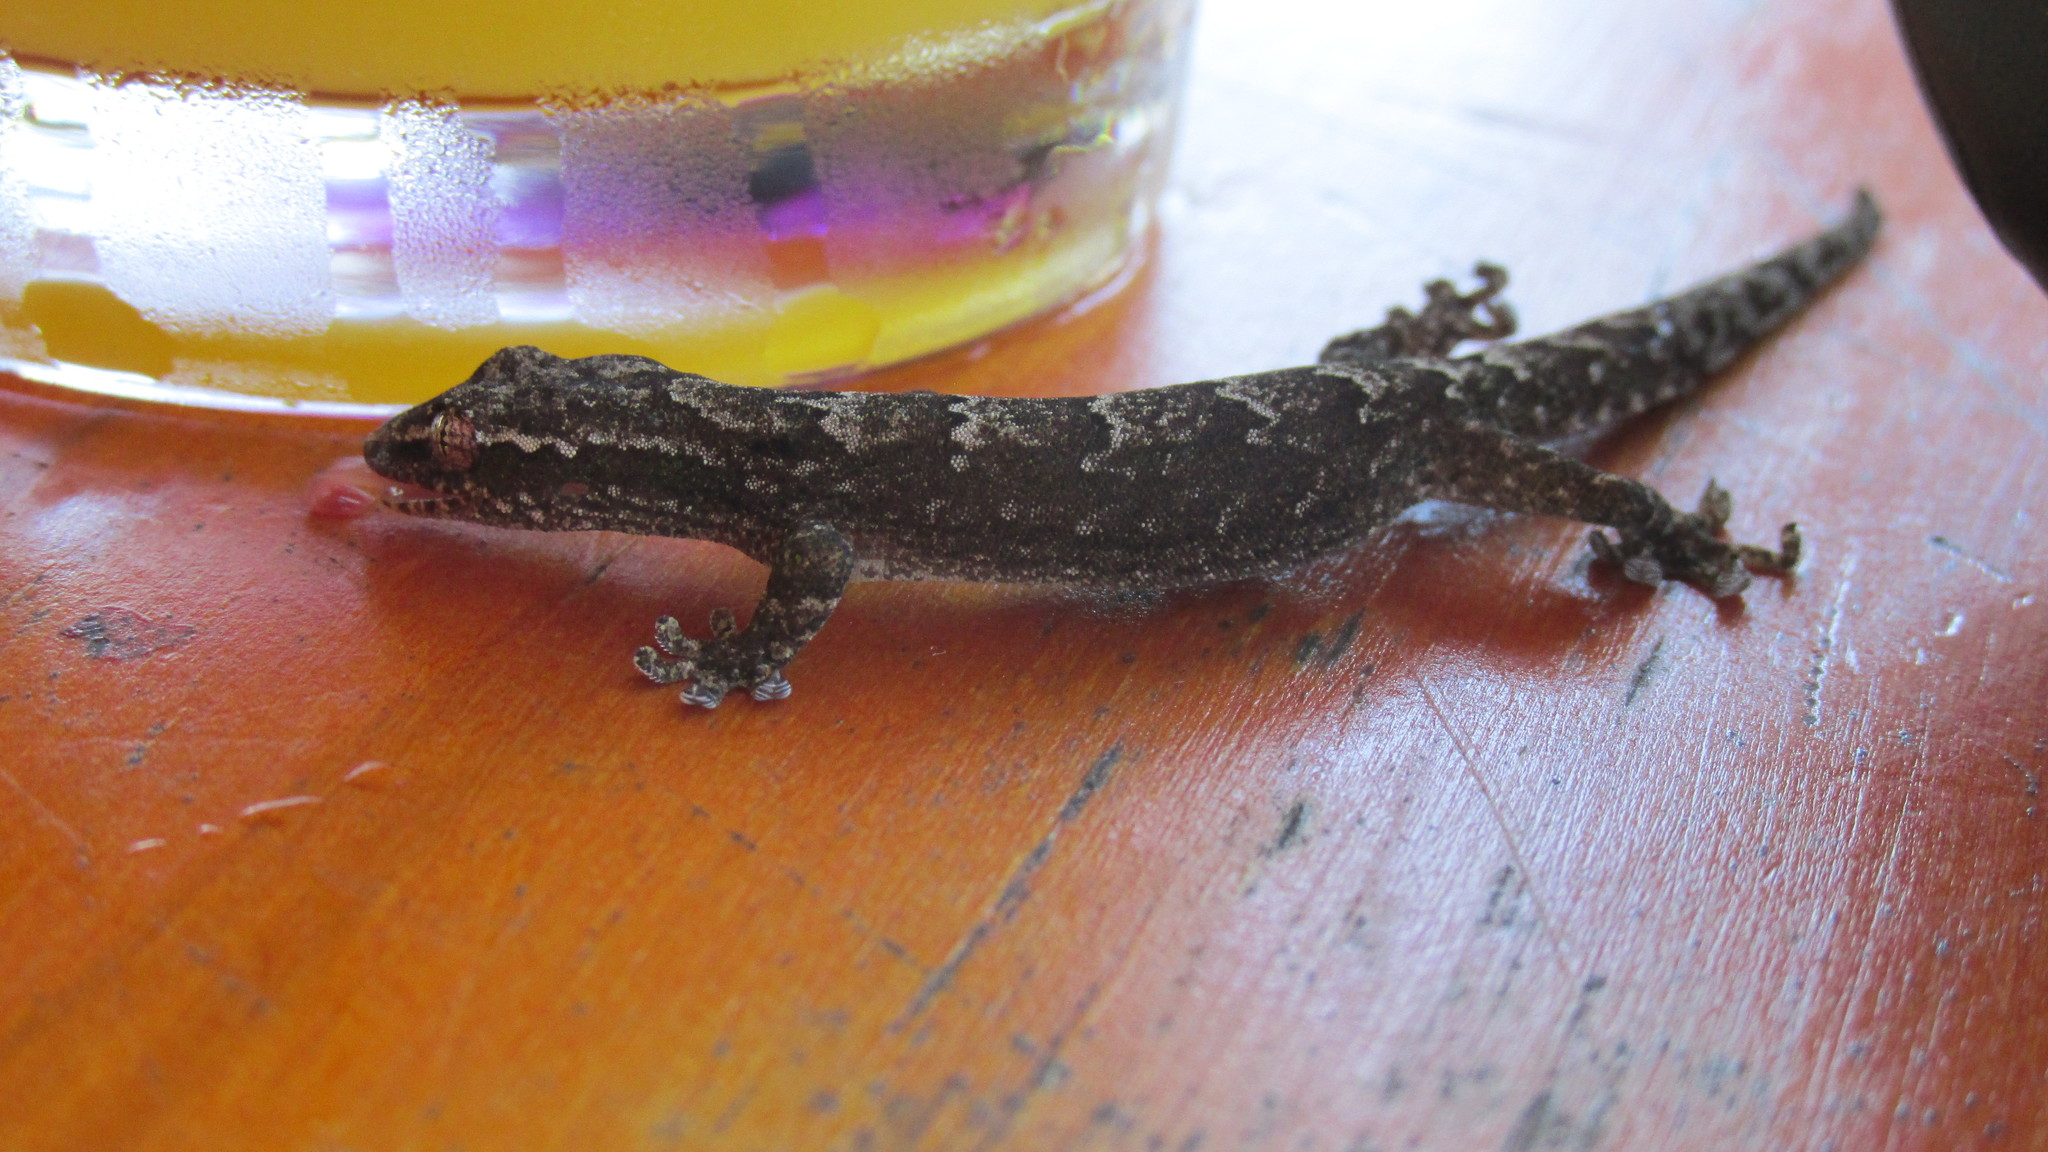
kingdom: Animalia
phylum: Chordata
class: Squamata
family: Gekkonidae
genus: Lepidodactylus
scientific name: Lepidodactylus lugubris
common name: Mourning gecko
